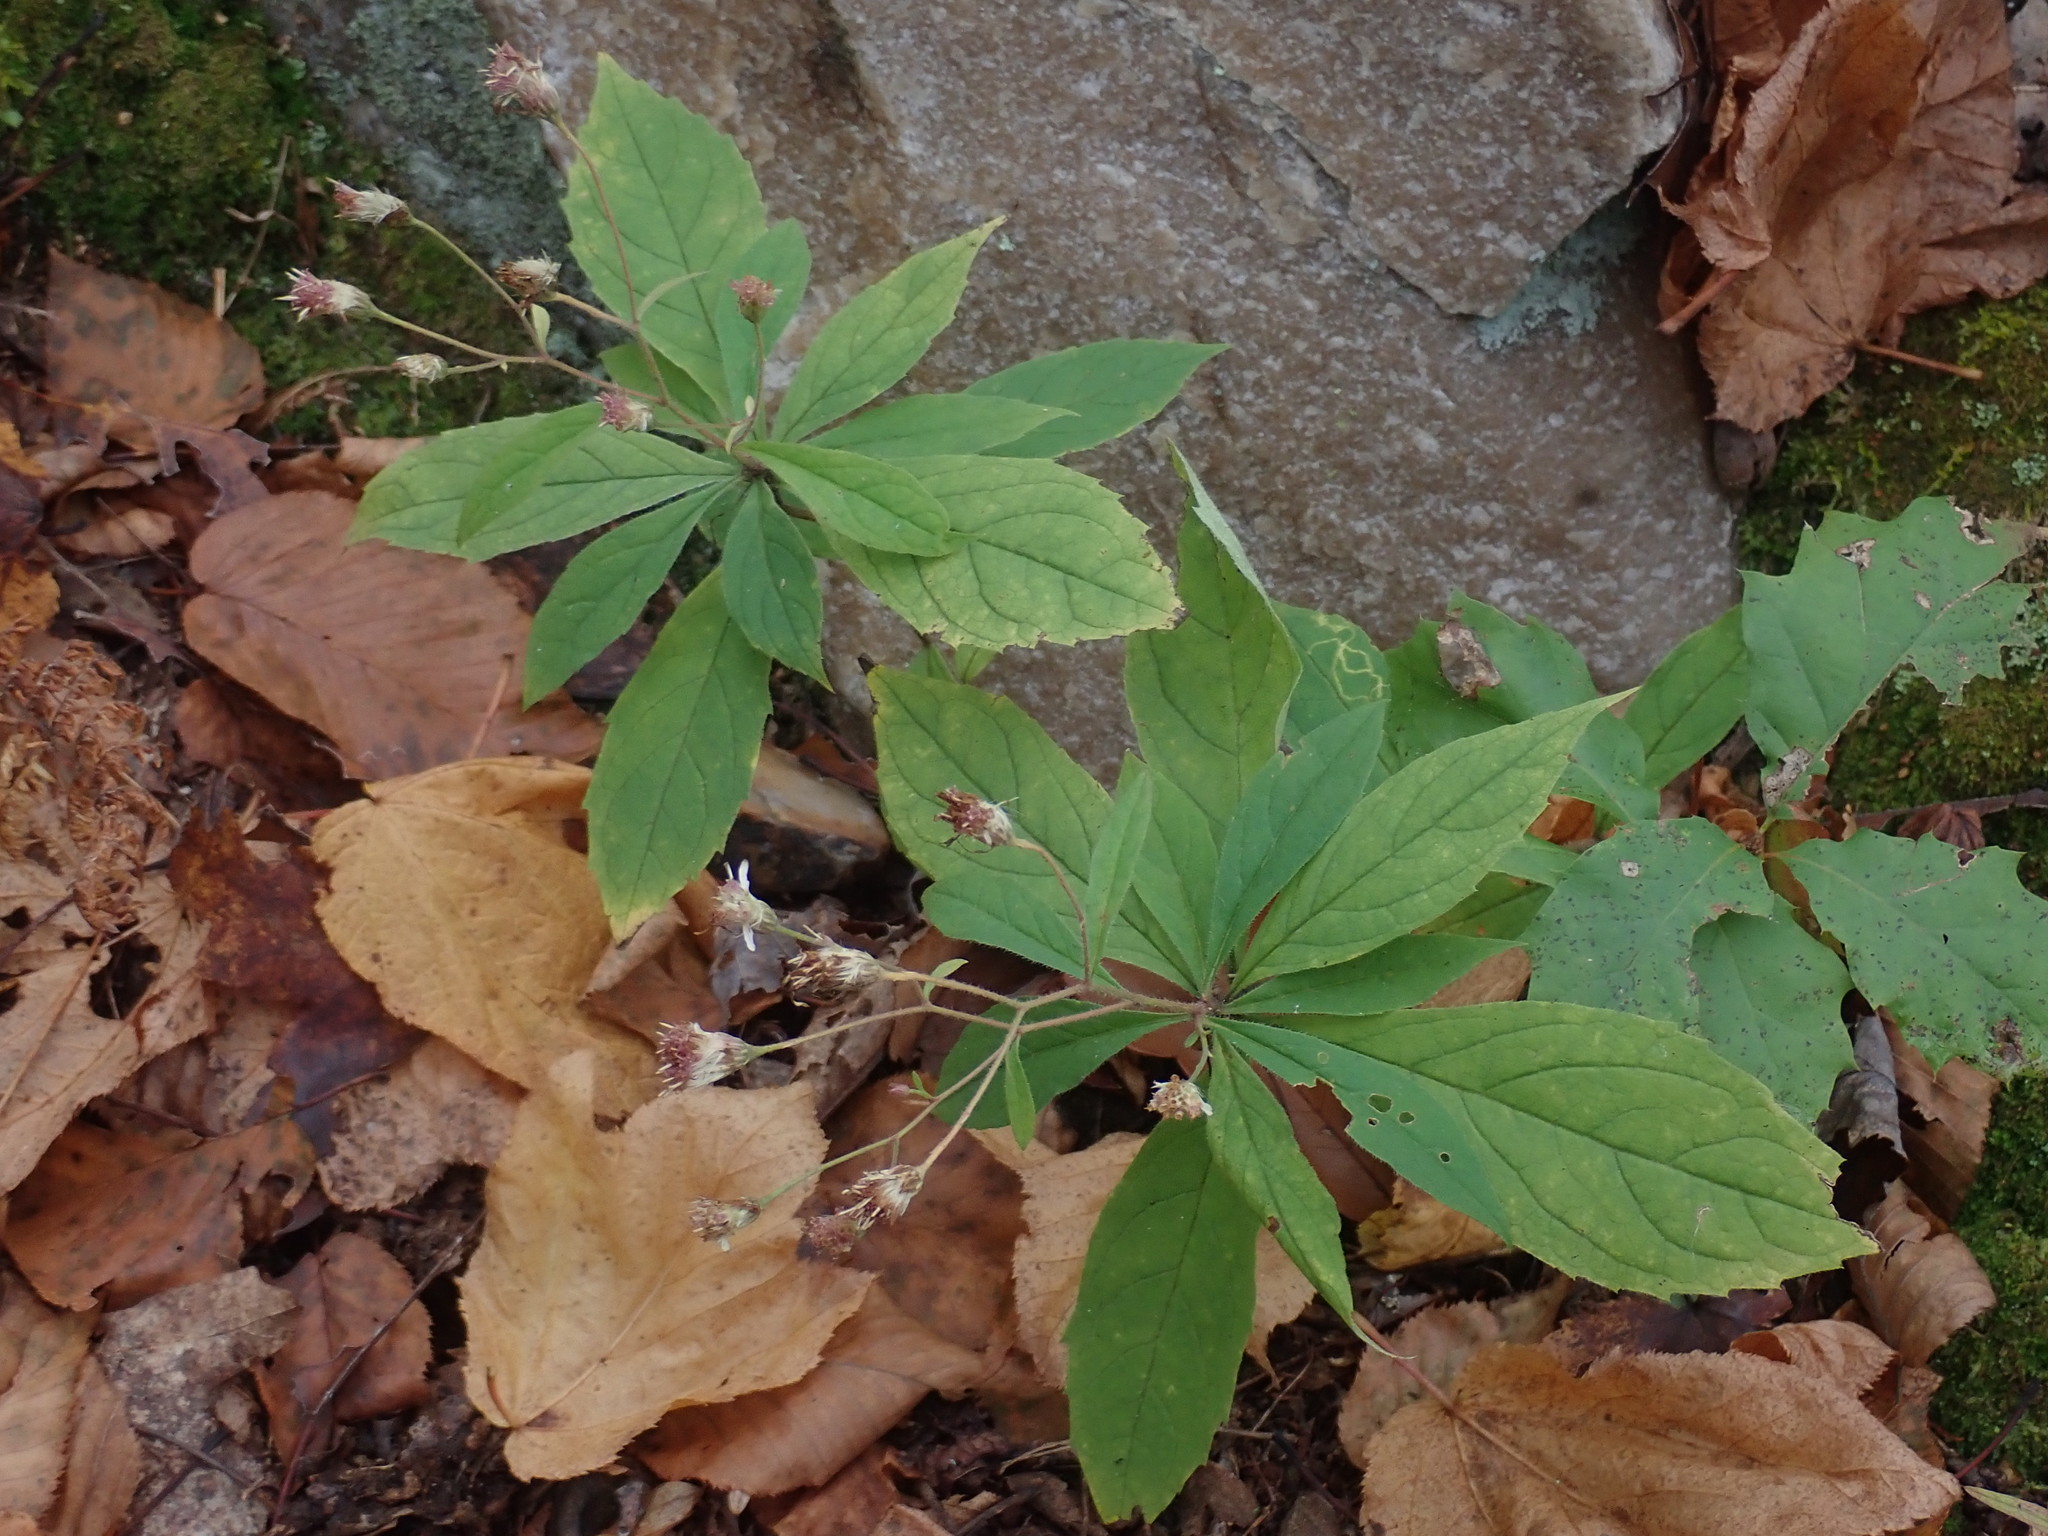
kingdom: Plantae
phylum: Tracheophyta
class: Magnoliopsida
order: Asterales
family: Asteraceae
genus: Oclemena
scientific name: Oclemena acuminata
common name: Mountain aster
